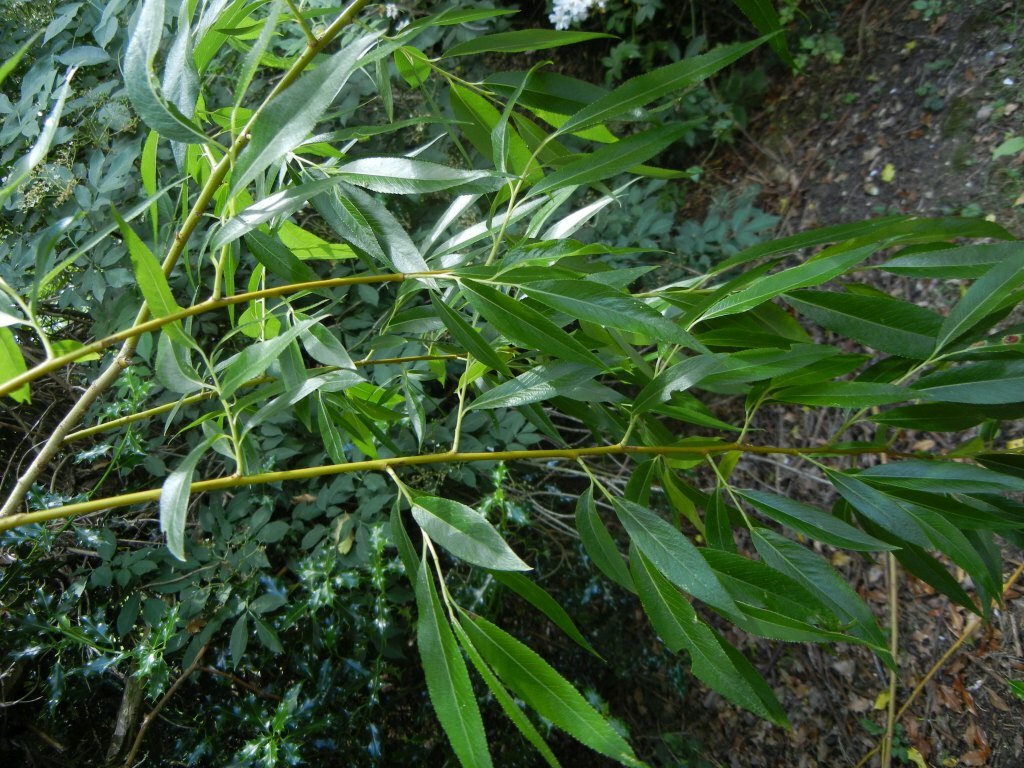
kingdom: Plantae
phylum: Tracheophyta
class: Magnoliopsida
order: Malpighiales
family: Salicaceae
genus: Salix
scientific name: Salix fragilis
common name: Crack willow
